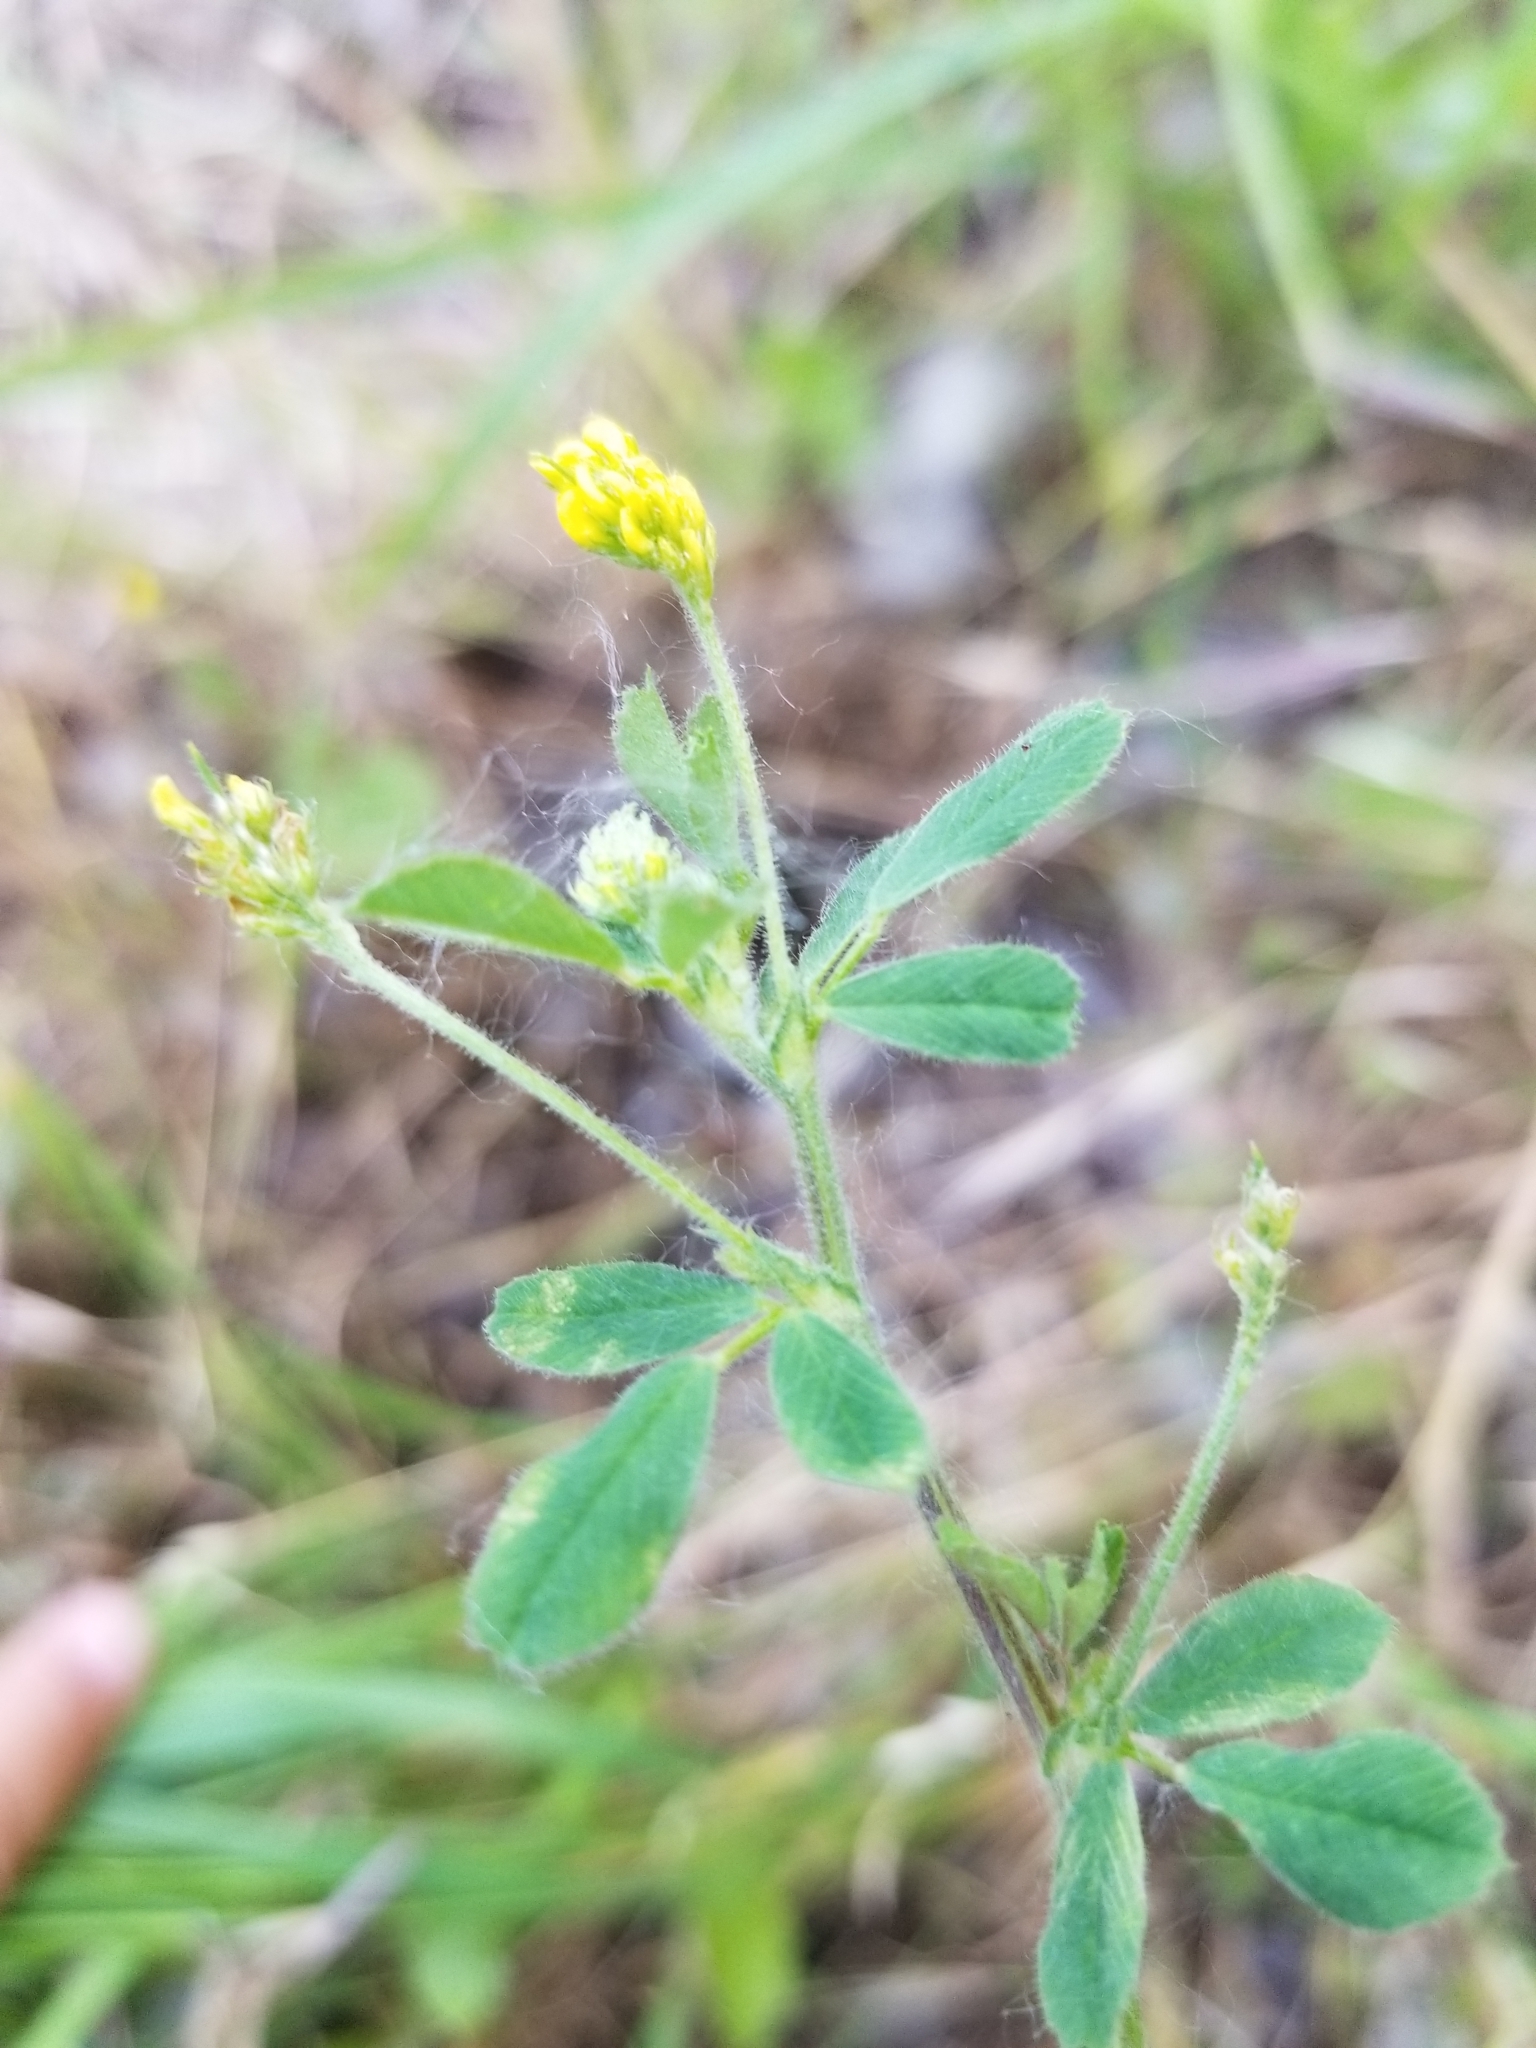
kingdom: Plantae
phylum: Tracheophyta
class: Magnoliopsida
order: Fabales
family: Fabaceae
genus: Medicago
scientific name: Medicago lupulina
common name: Black medick
